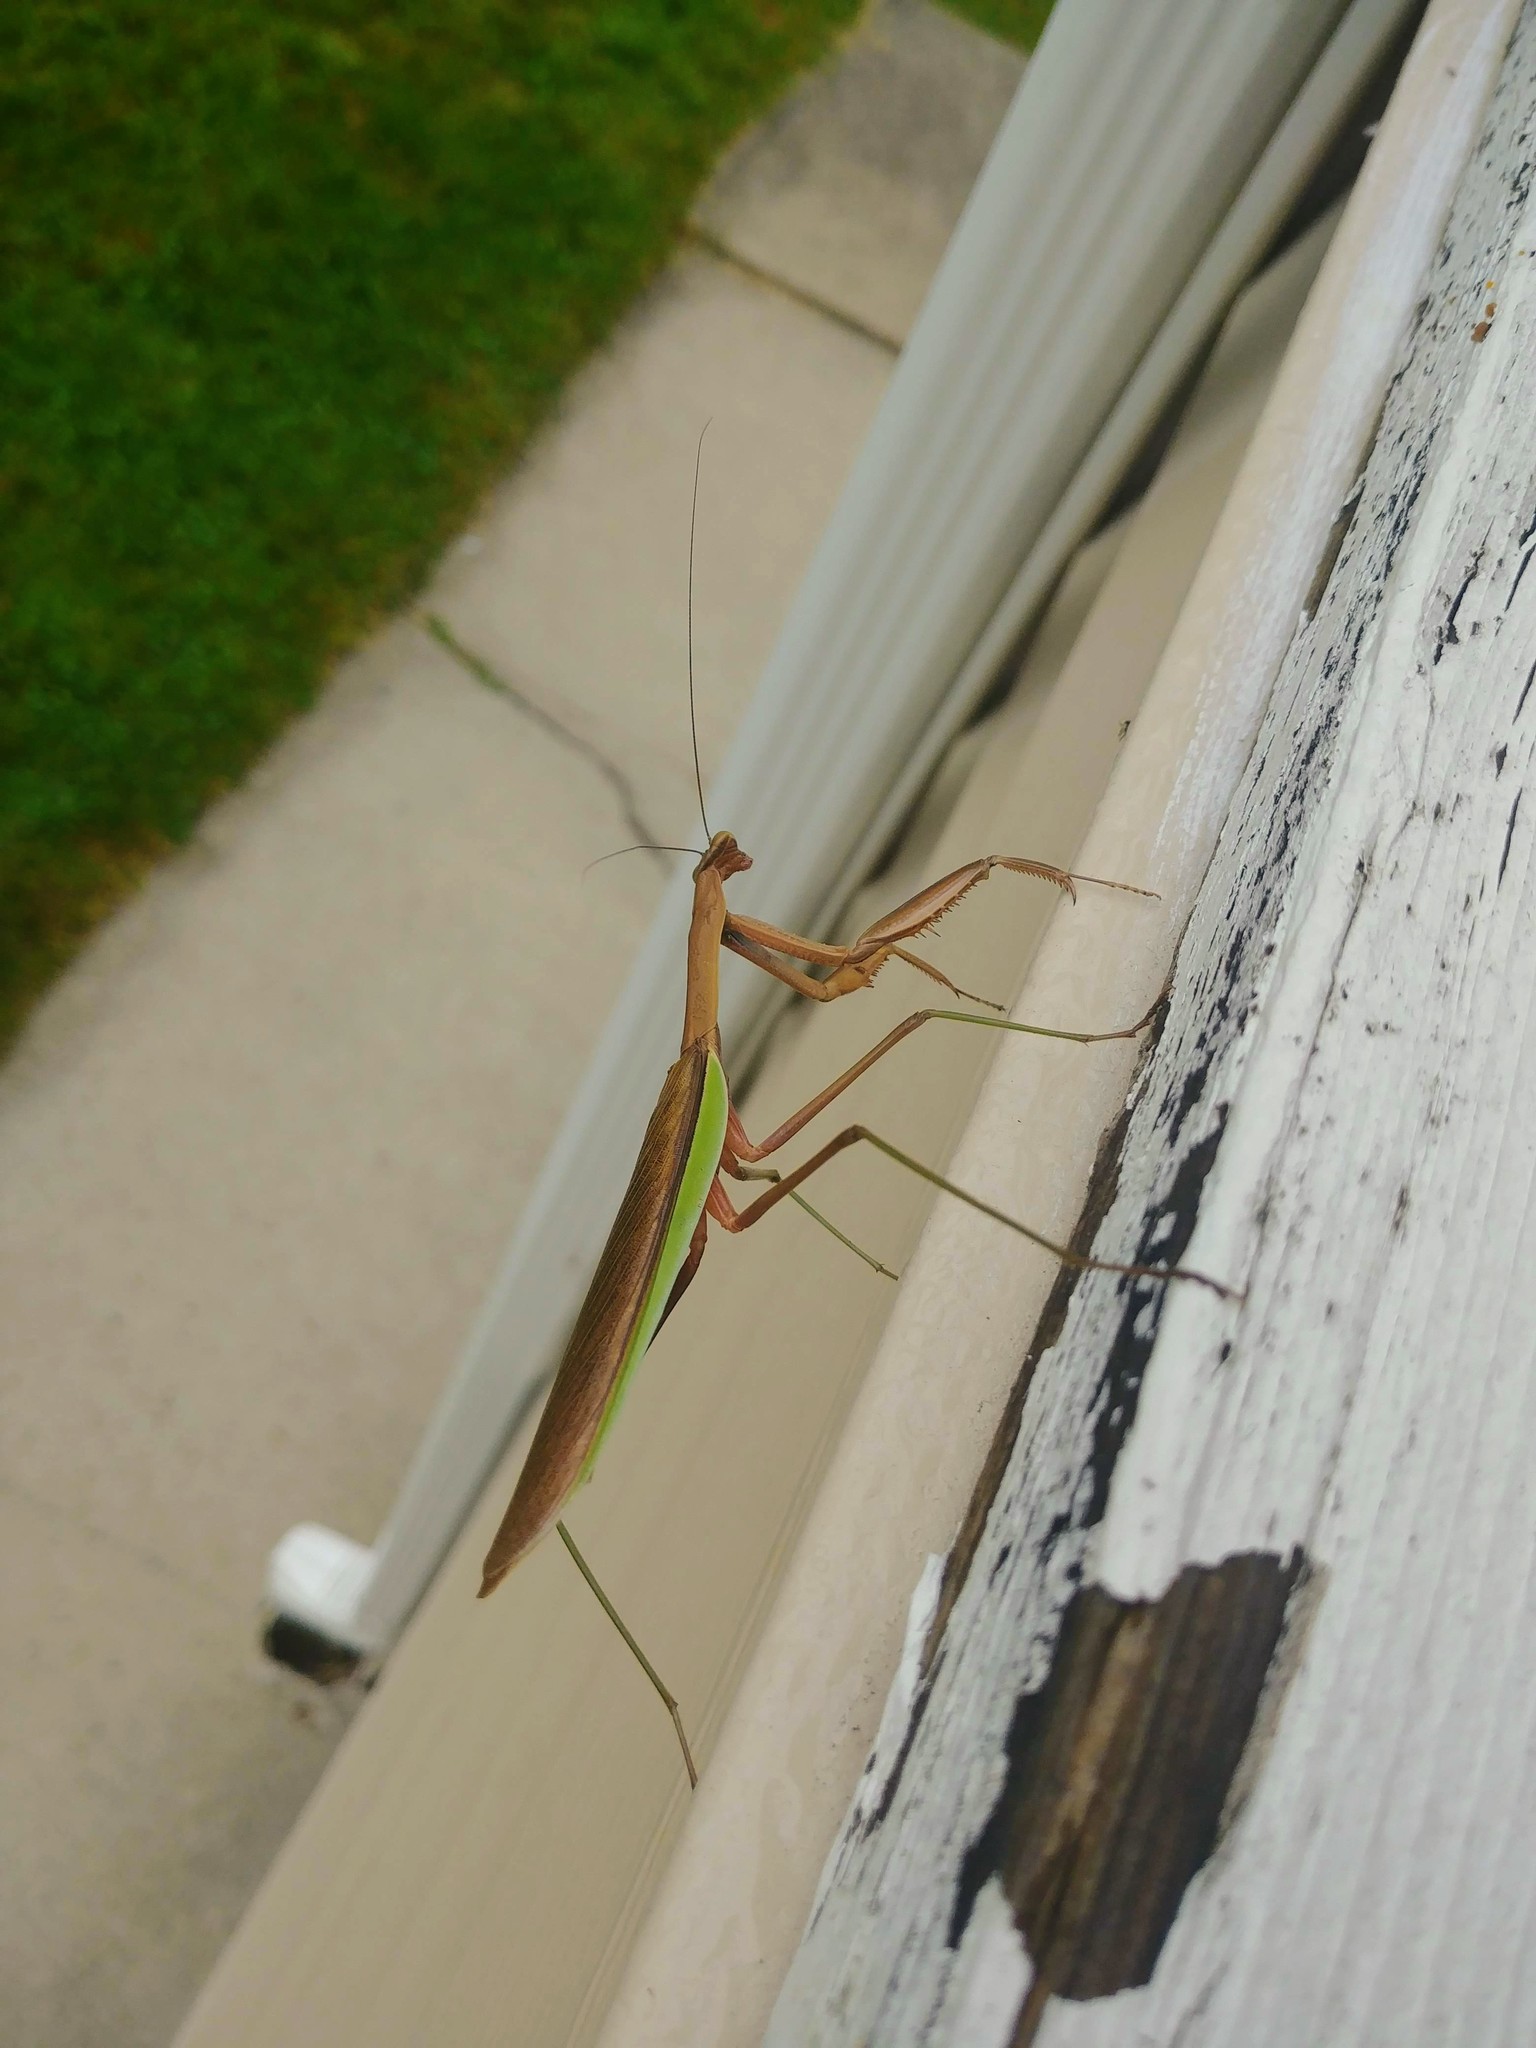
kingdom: Animalia
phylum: Arthropoda
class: Insecta
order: Mantodea
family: Mantidae
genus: Tenodera
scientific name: Tenodera sinensis
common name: Chinese mantis
